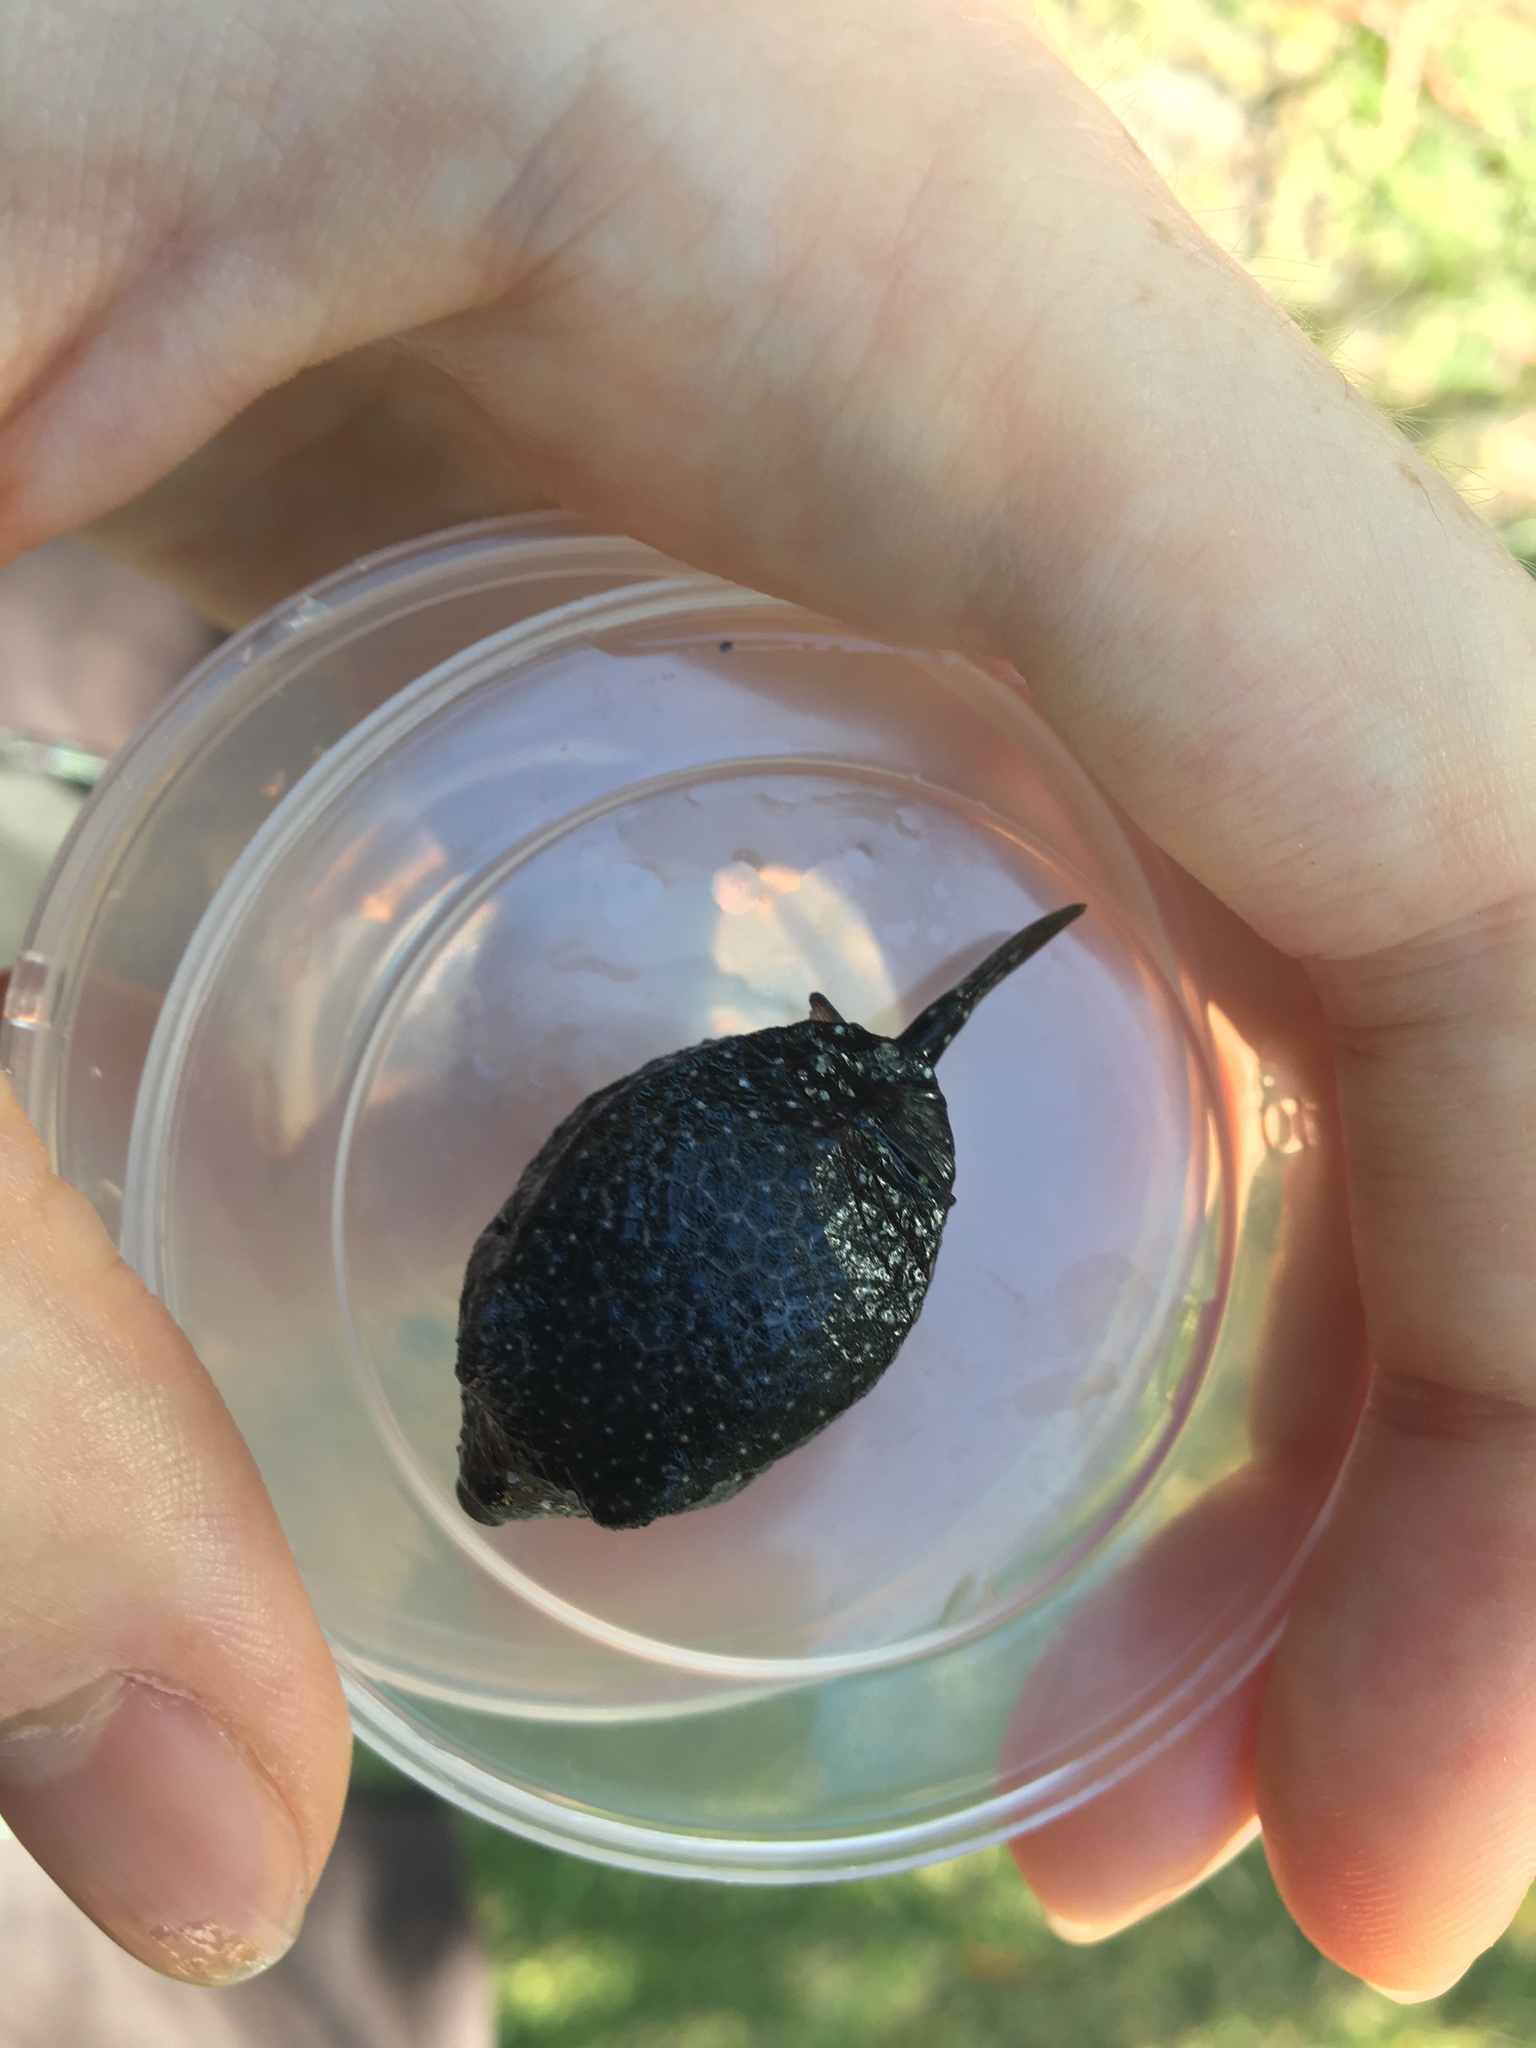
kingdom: Animalia
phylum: Chordata
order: Tetraodontiformes
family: Ostraciidae
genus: Ostracion
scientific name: Ostracion meleagris
